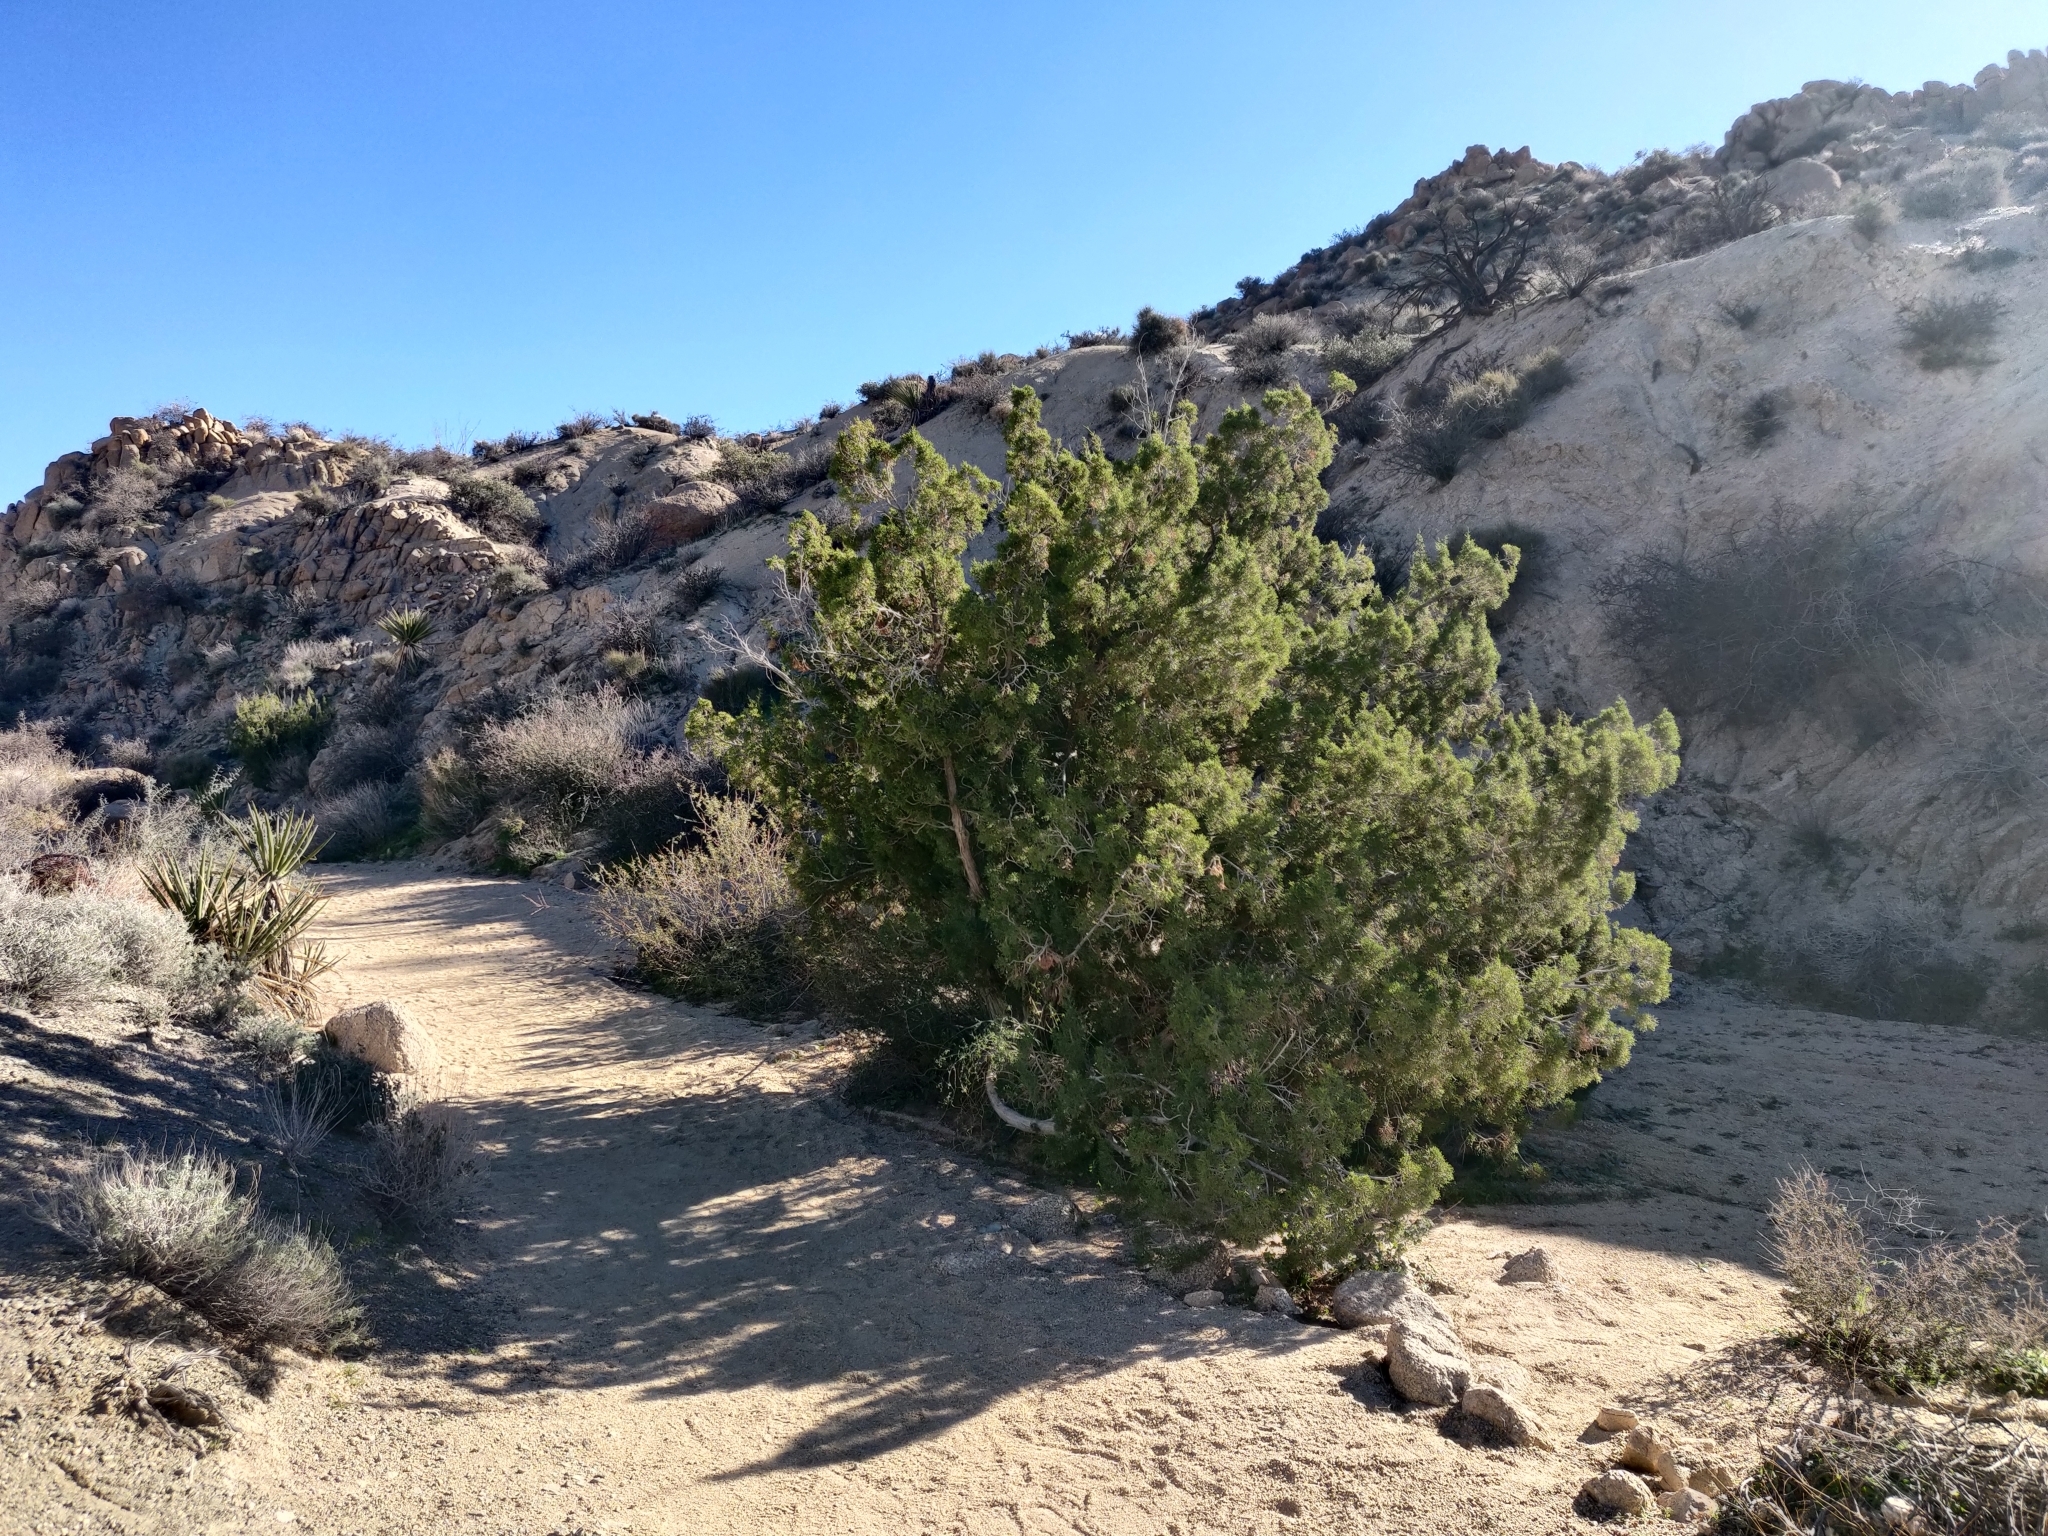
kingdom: Plantae
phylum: Tracheophyta
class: Pinopsida
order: Pinales
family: Cupressaceae
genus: Juniperus
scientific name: Juniperus californica
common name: California juniper
